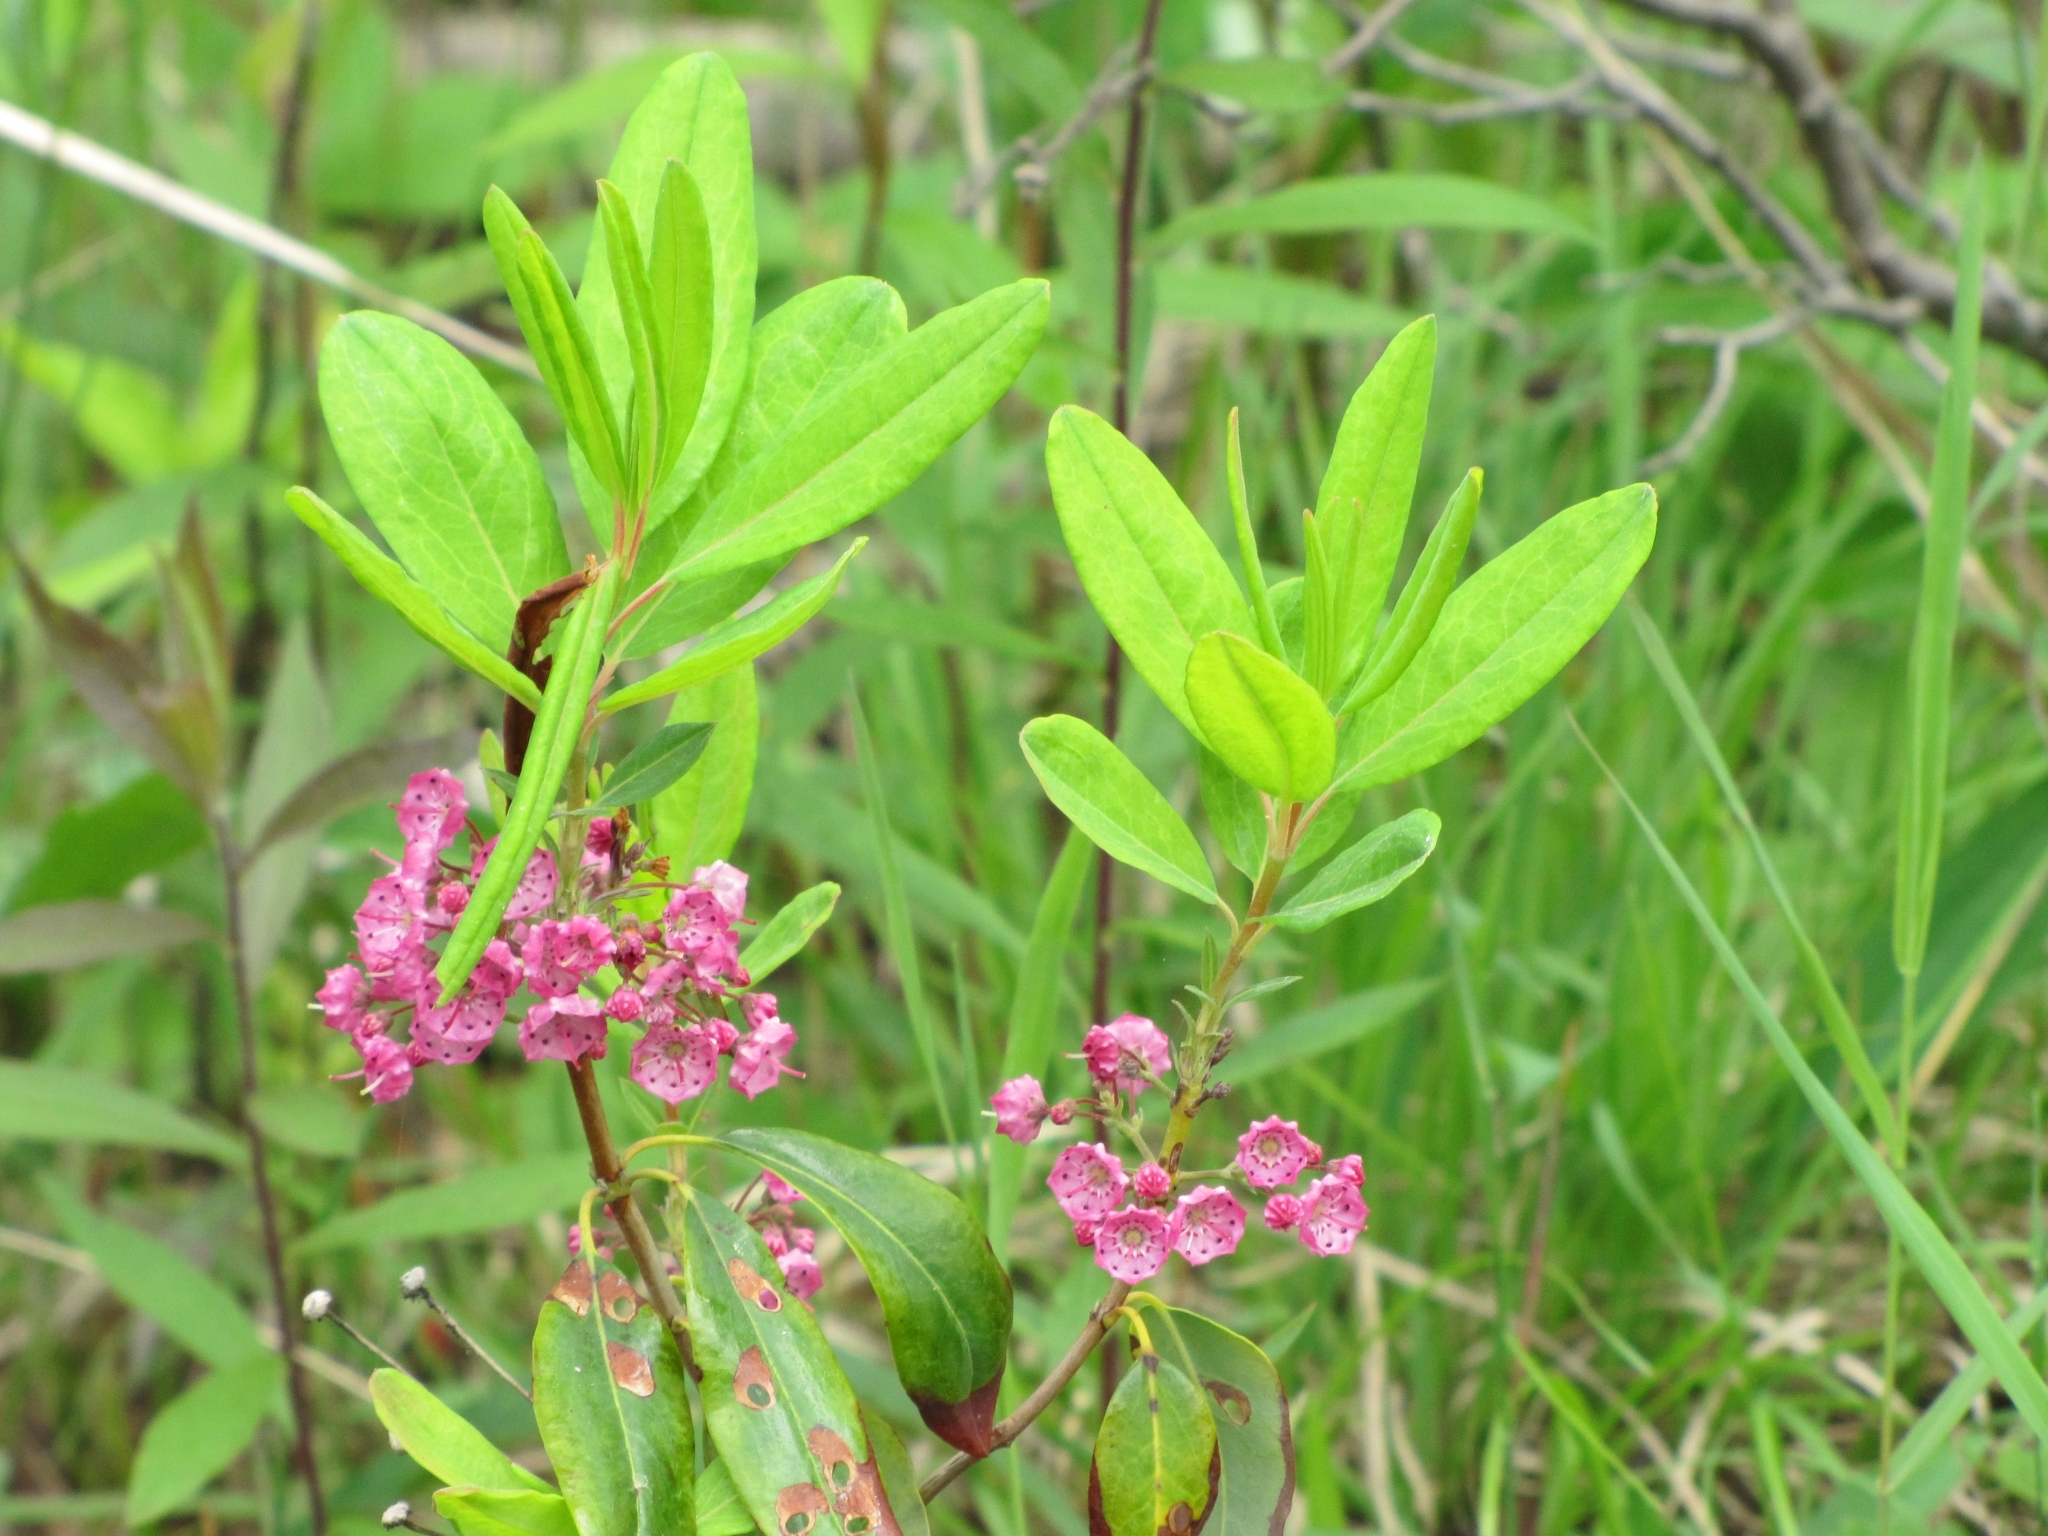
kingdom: Plantae
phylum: Tracheophyta
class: Magnoliopsida
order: Ericales
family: Ericaceae
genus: Kalmia
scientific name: Kalmia angustifolia
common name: Sheep-laurel
